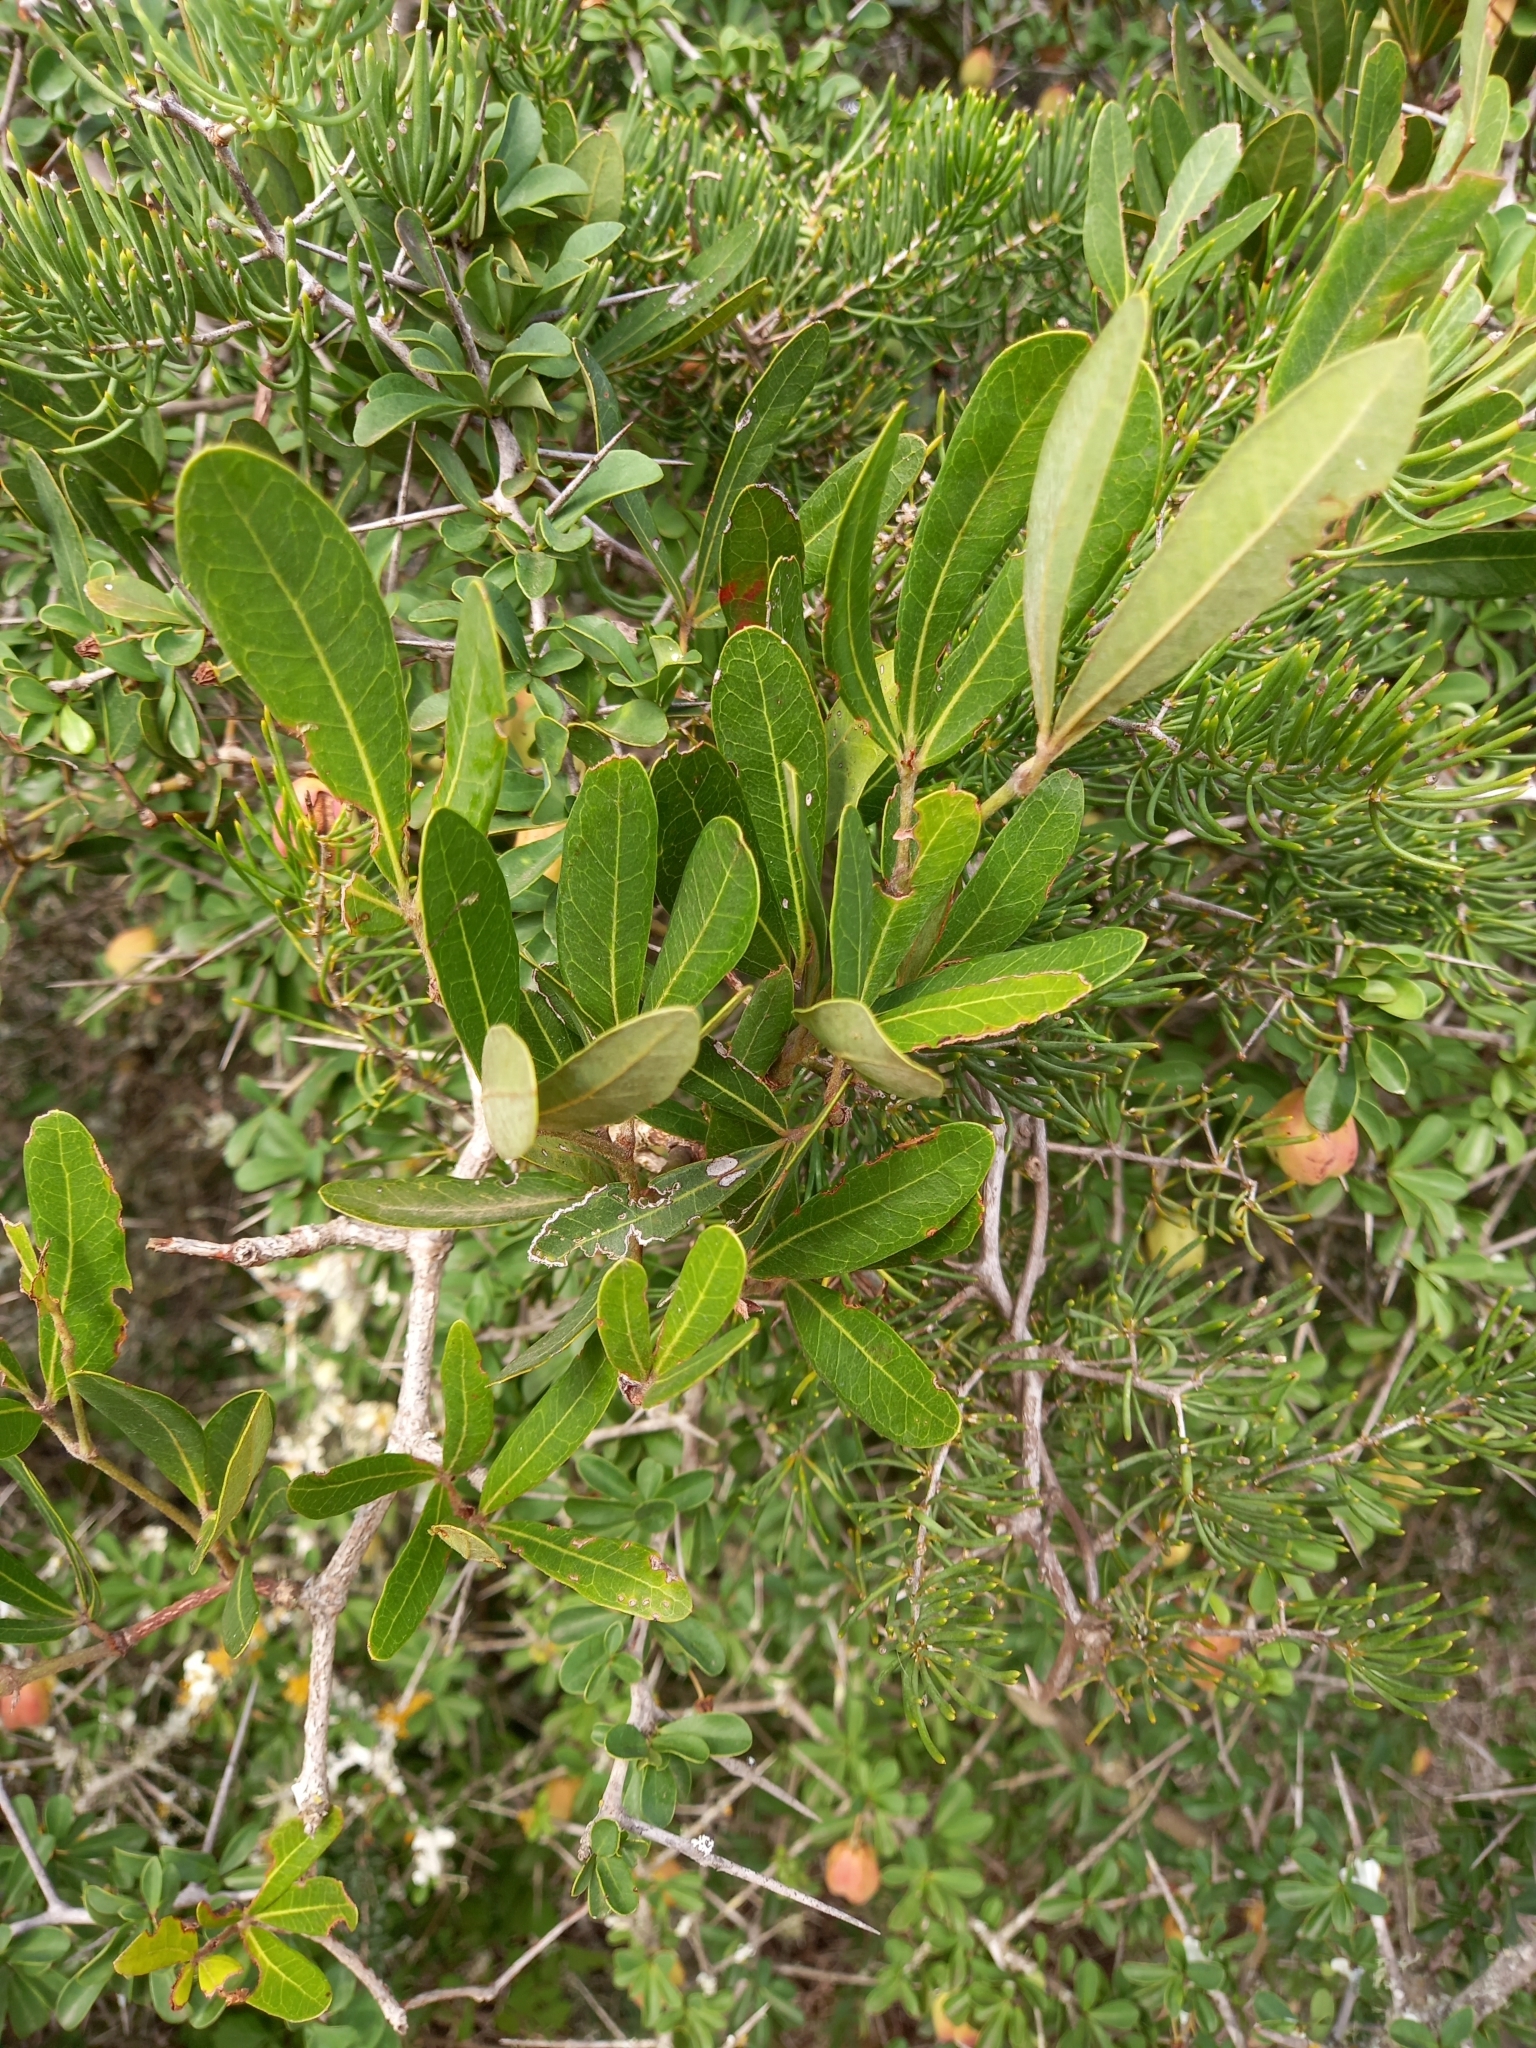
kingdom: Plantae
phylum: Tracheophyta
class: Magnoliopsida
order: Vitales
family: Vitaceae
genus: Rhoicissus
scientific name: Rhoicissus digitata
